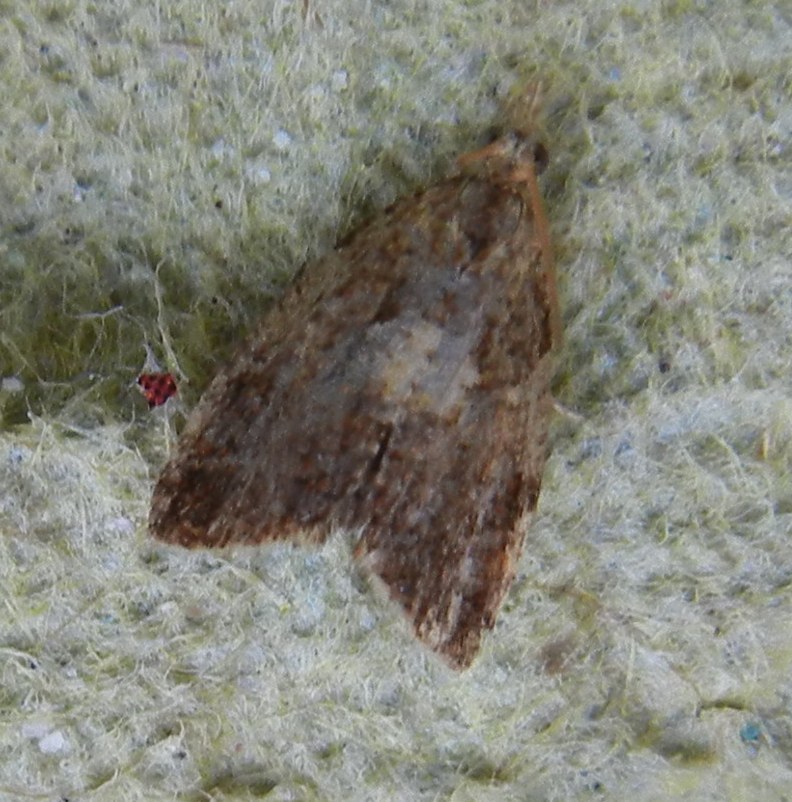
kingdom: Animalia
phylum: Arthropoda
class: Insecta
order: Lepidoptera
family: Tortricidae
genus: Pseudargyrotoza
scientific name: Pseudargyrotoza conwagana
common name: Yellow-spot twist
